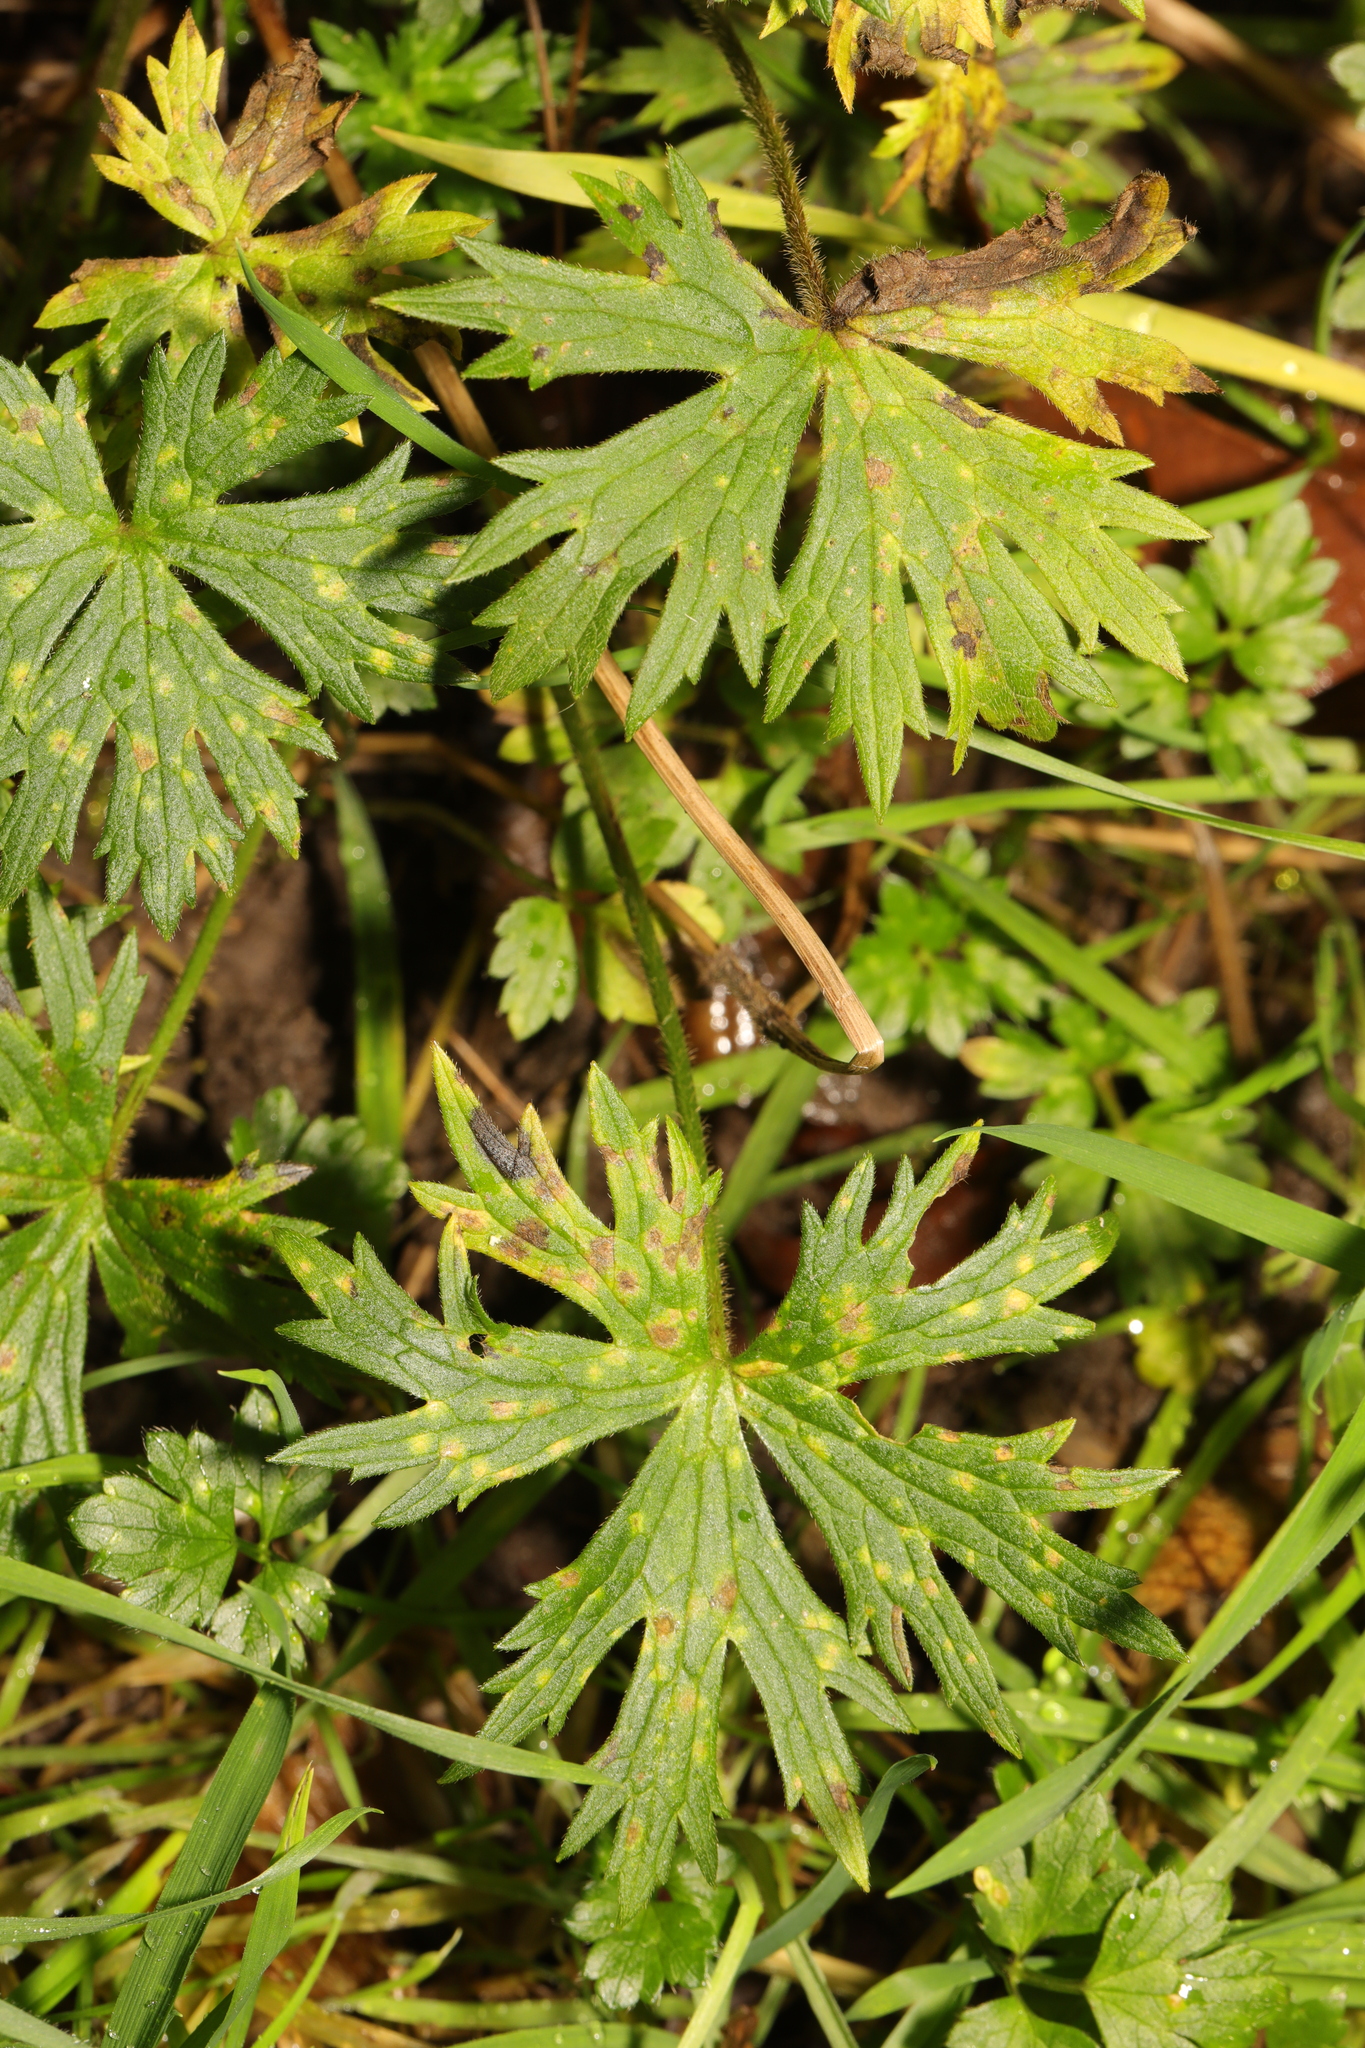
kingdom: Plantae
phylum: Tracheophyta
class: Magnoliopsida
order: Ranunculales
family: Ranunculaceae
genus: Ranunculus
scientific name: Ranunculus acris
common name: Meadow buttercup
